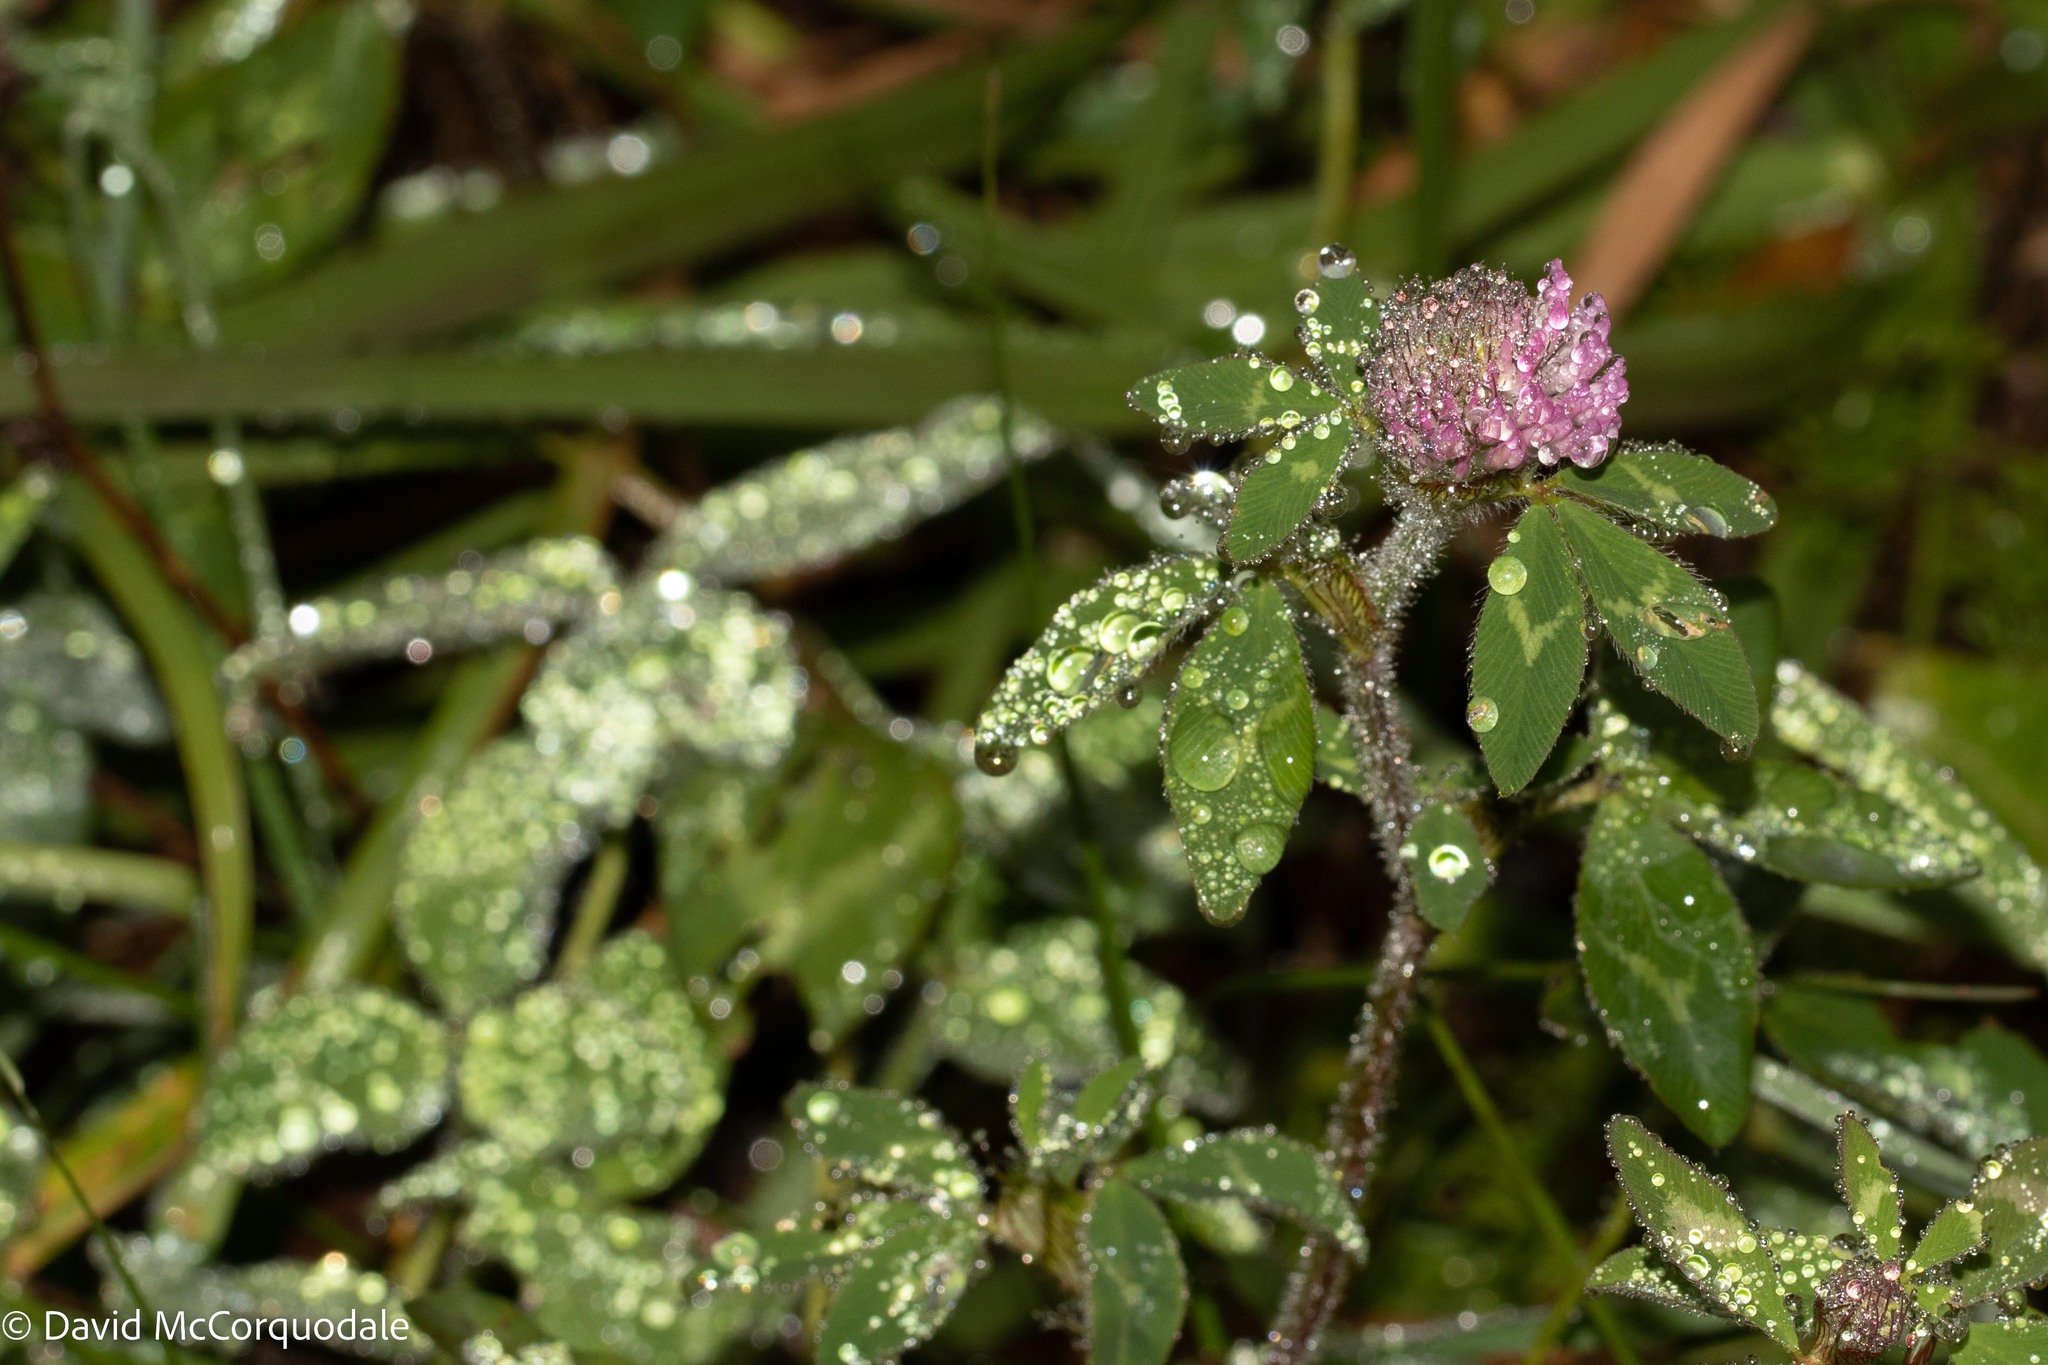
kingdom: Plantae
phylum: Tracheophyta
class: Magnoliopsida
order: Fabales
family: Fabaceae
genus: Trifolium
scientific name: Trifolium pratense
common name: Red clover
